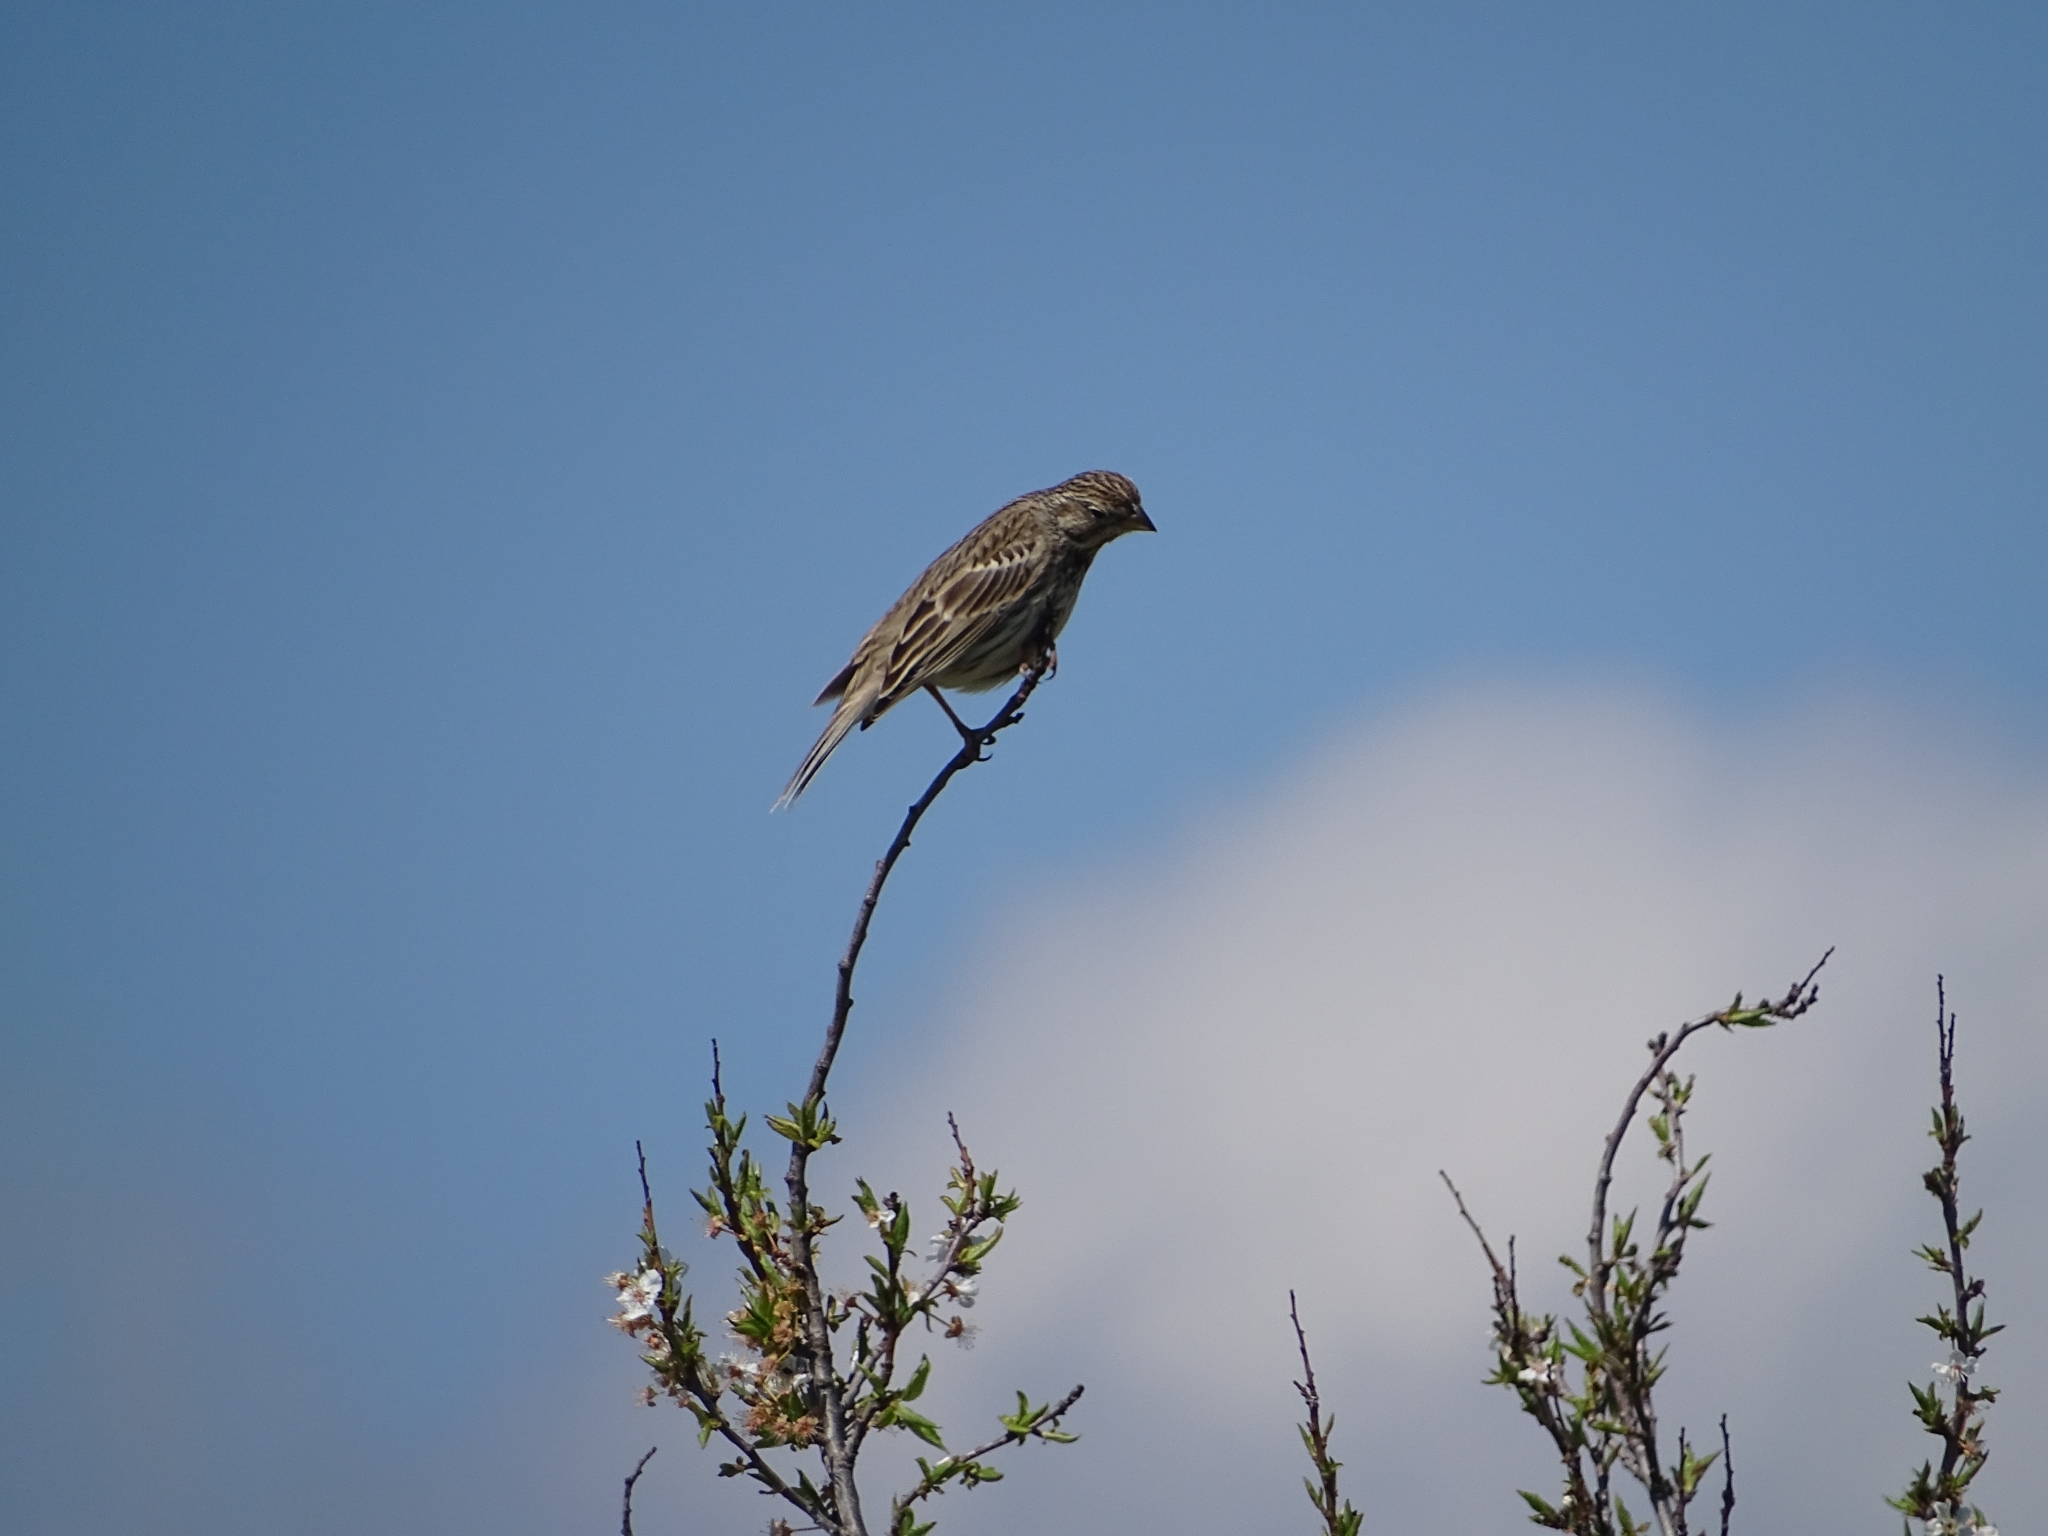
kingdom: Animalia
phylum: Chordata
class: Aves
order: Passeriformes
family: Emberizidae
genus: Emberiza
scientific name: Emberiza calandra
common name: Corn bunting
